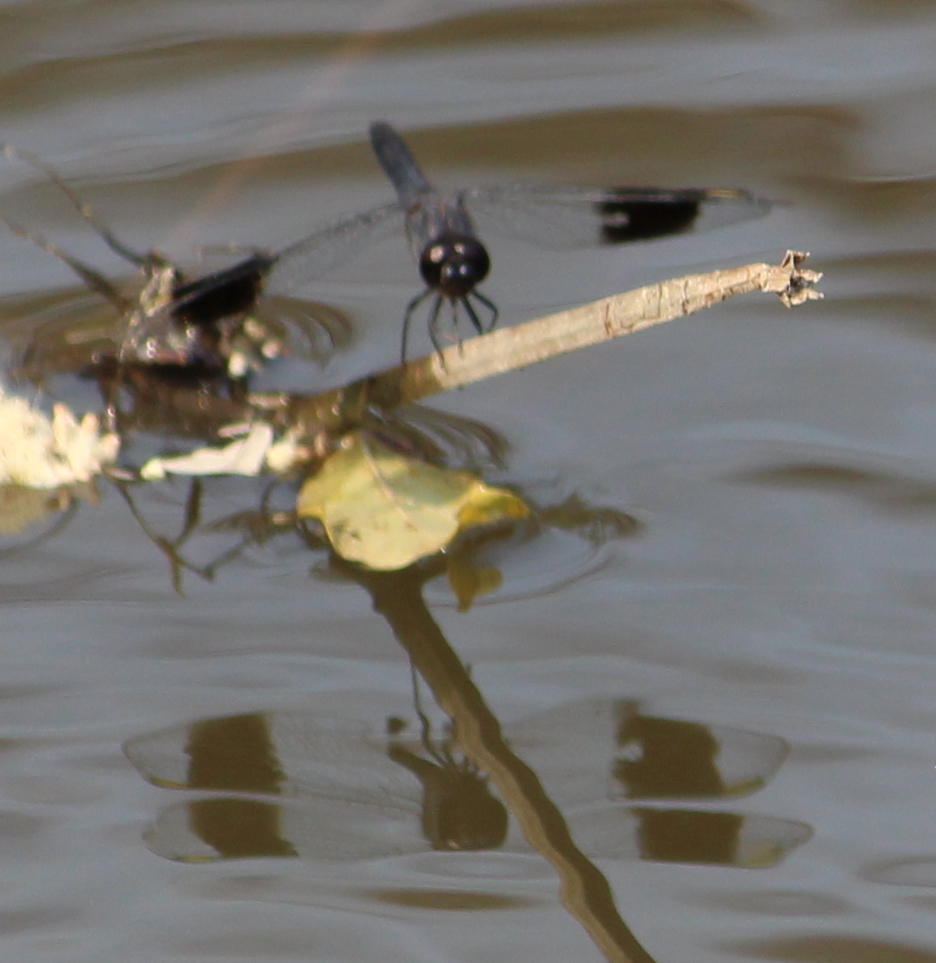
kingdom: Animalia
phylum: Arthropoda
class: Insecta
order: Odonata
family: Libellulidae
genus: Brachythemis
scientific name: Brachythemis leucosticta
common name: Banded groundling
